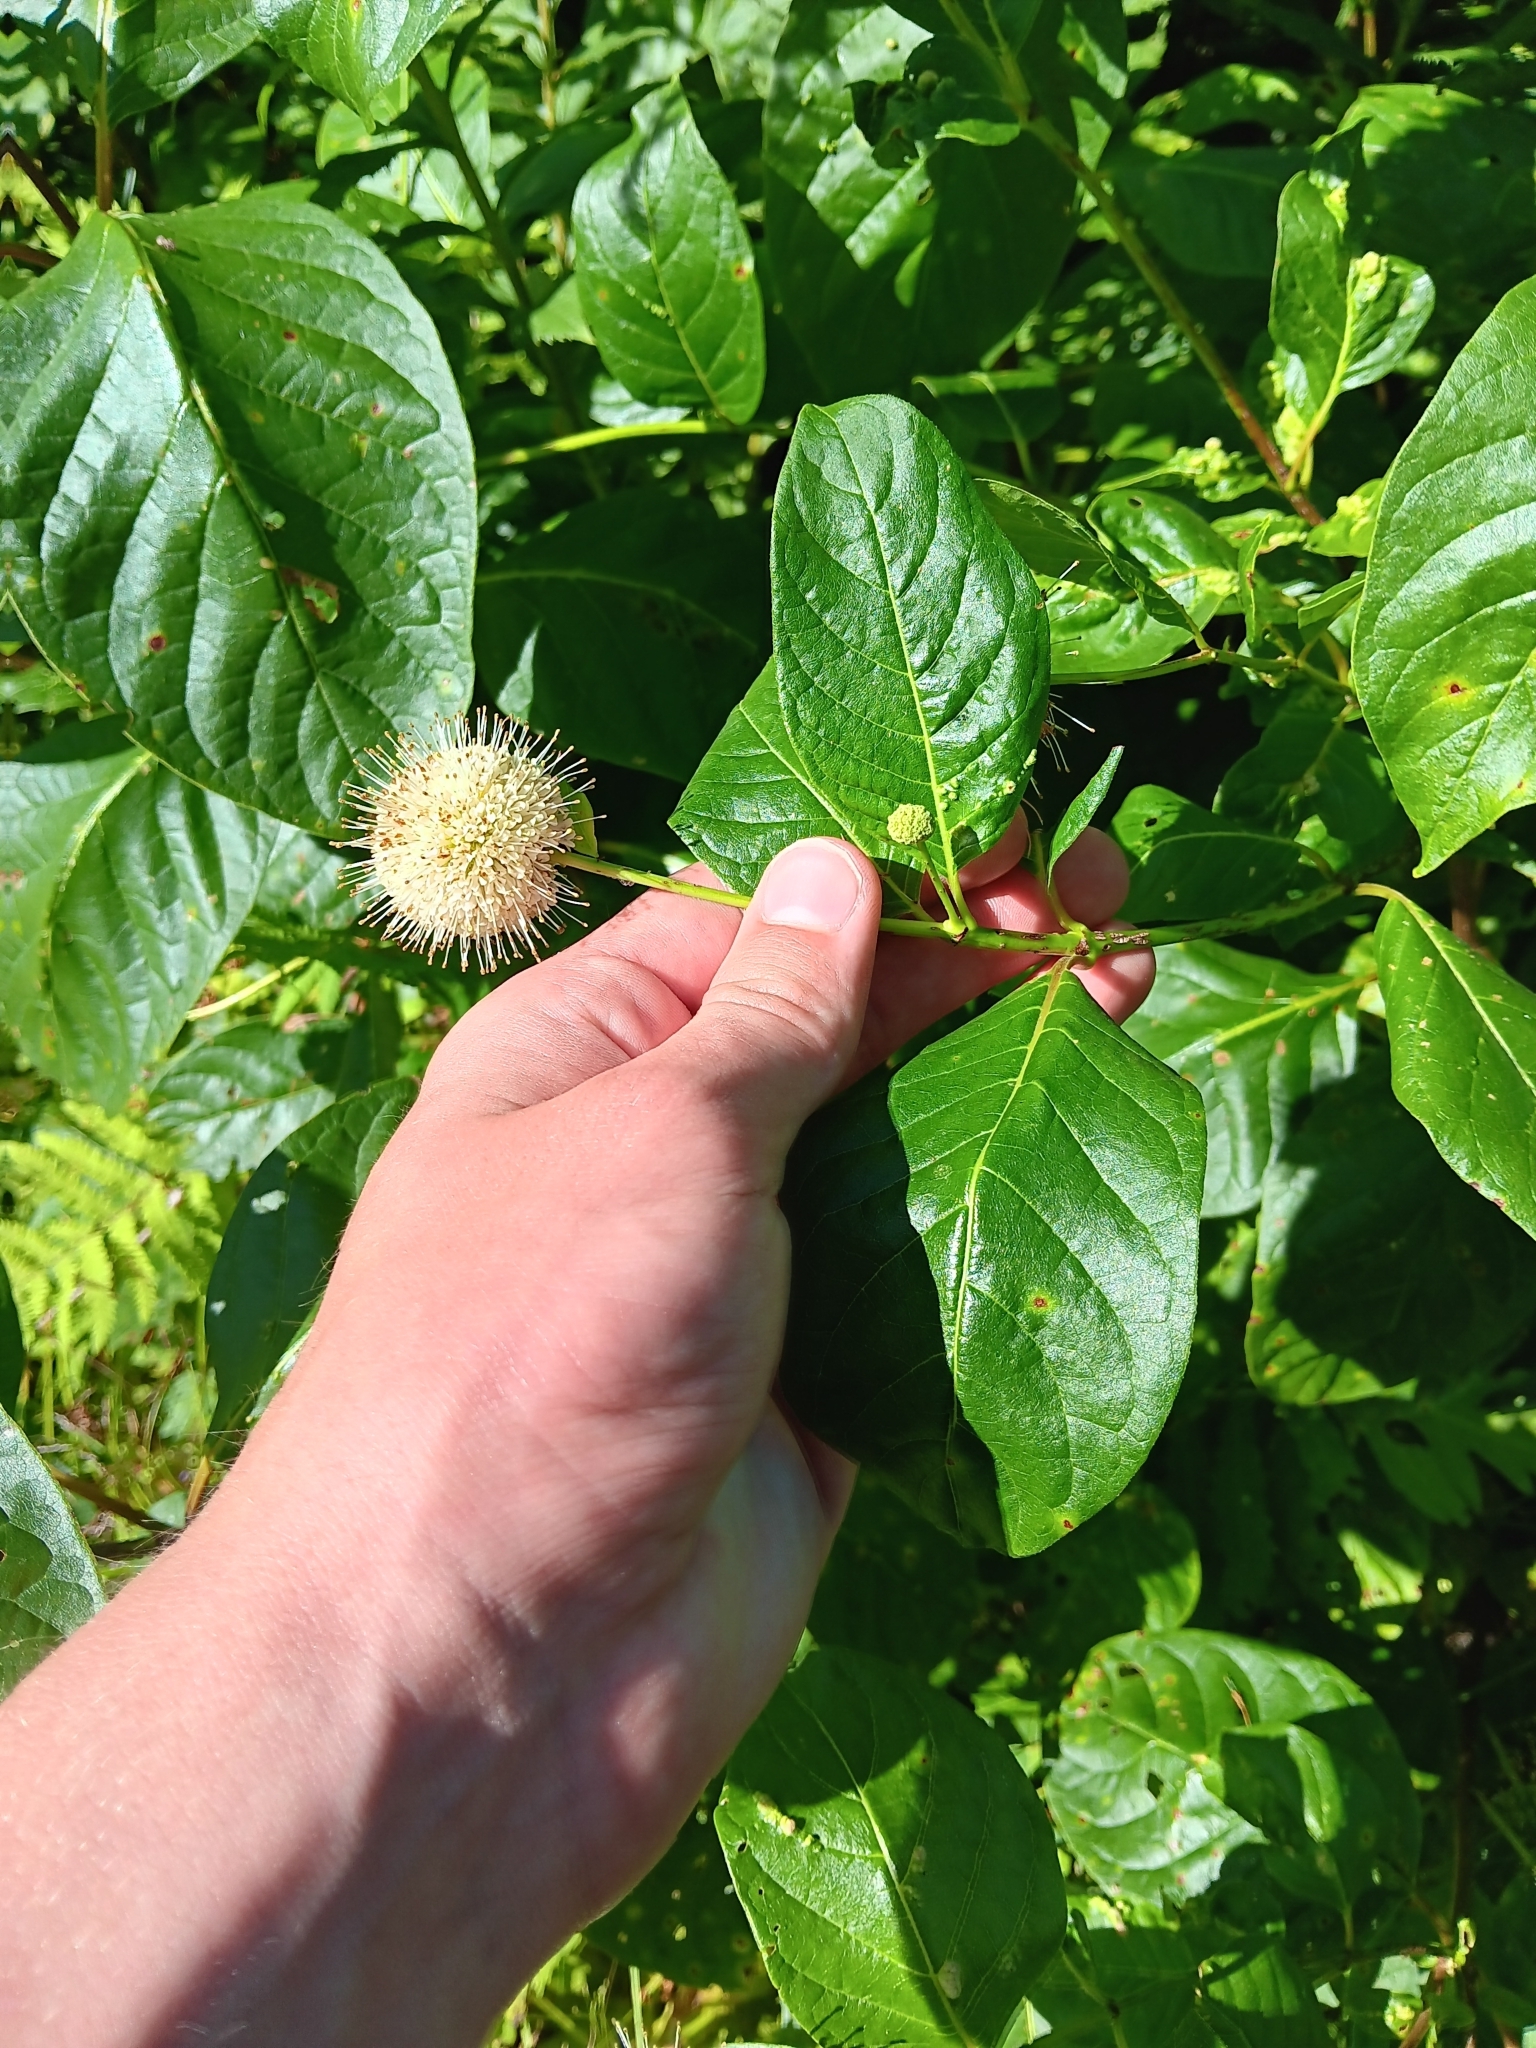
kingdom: Plantae
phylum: Tracheophyta
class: Magnoliopsida
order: Gentianales
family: Rubiaceae
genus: Cephalanthus
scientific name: Cephalanthus occidentalis
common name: Button-willow
